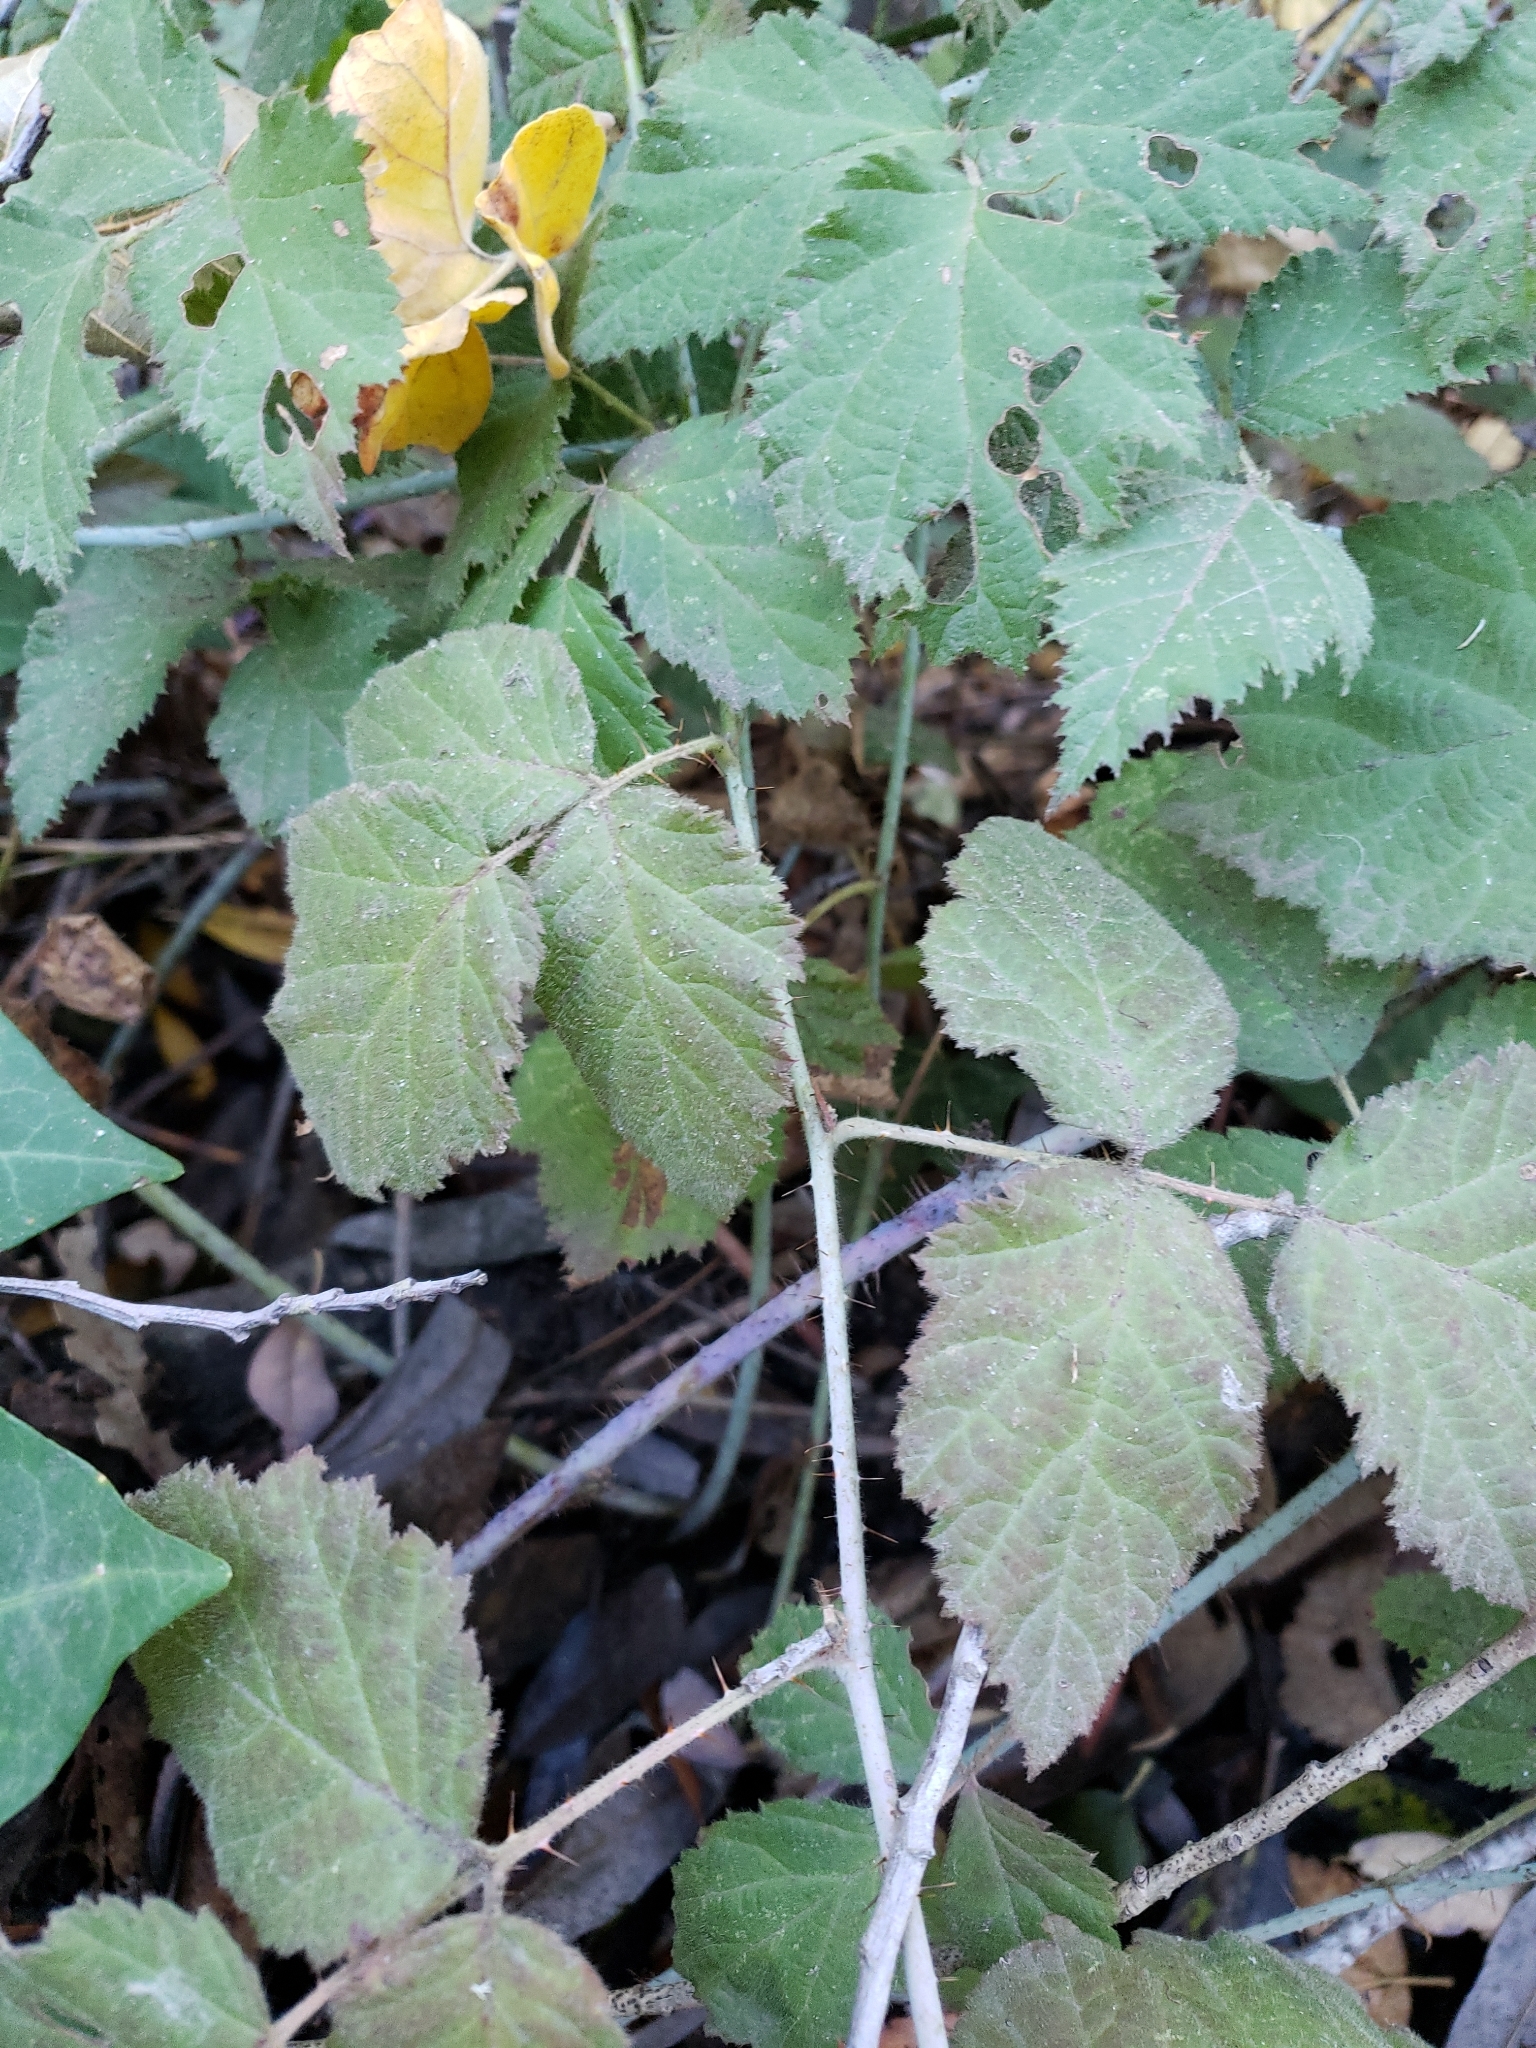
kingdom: Plantae
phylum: Tracheophyta
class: Magnoliopsida
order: Rosales
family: Rosaceae
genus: Rubus
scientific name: Rubus ursinus
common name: Pacific blackberry
